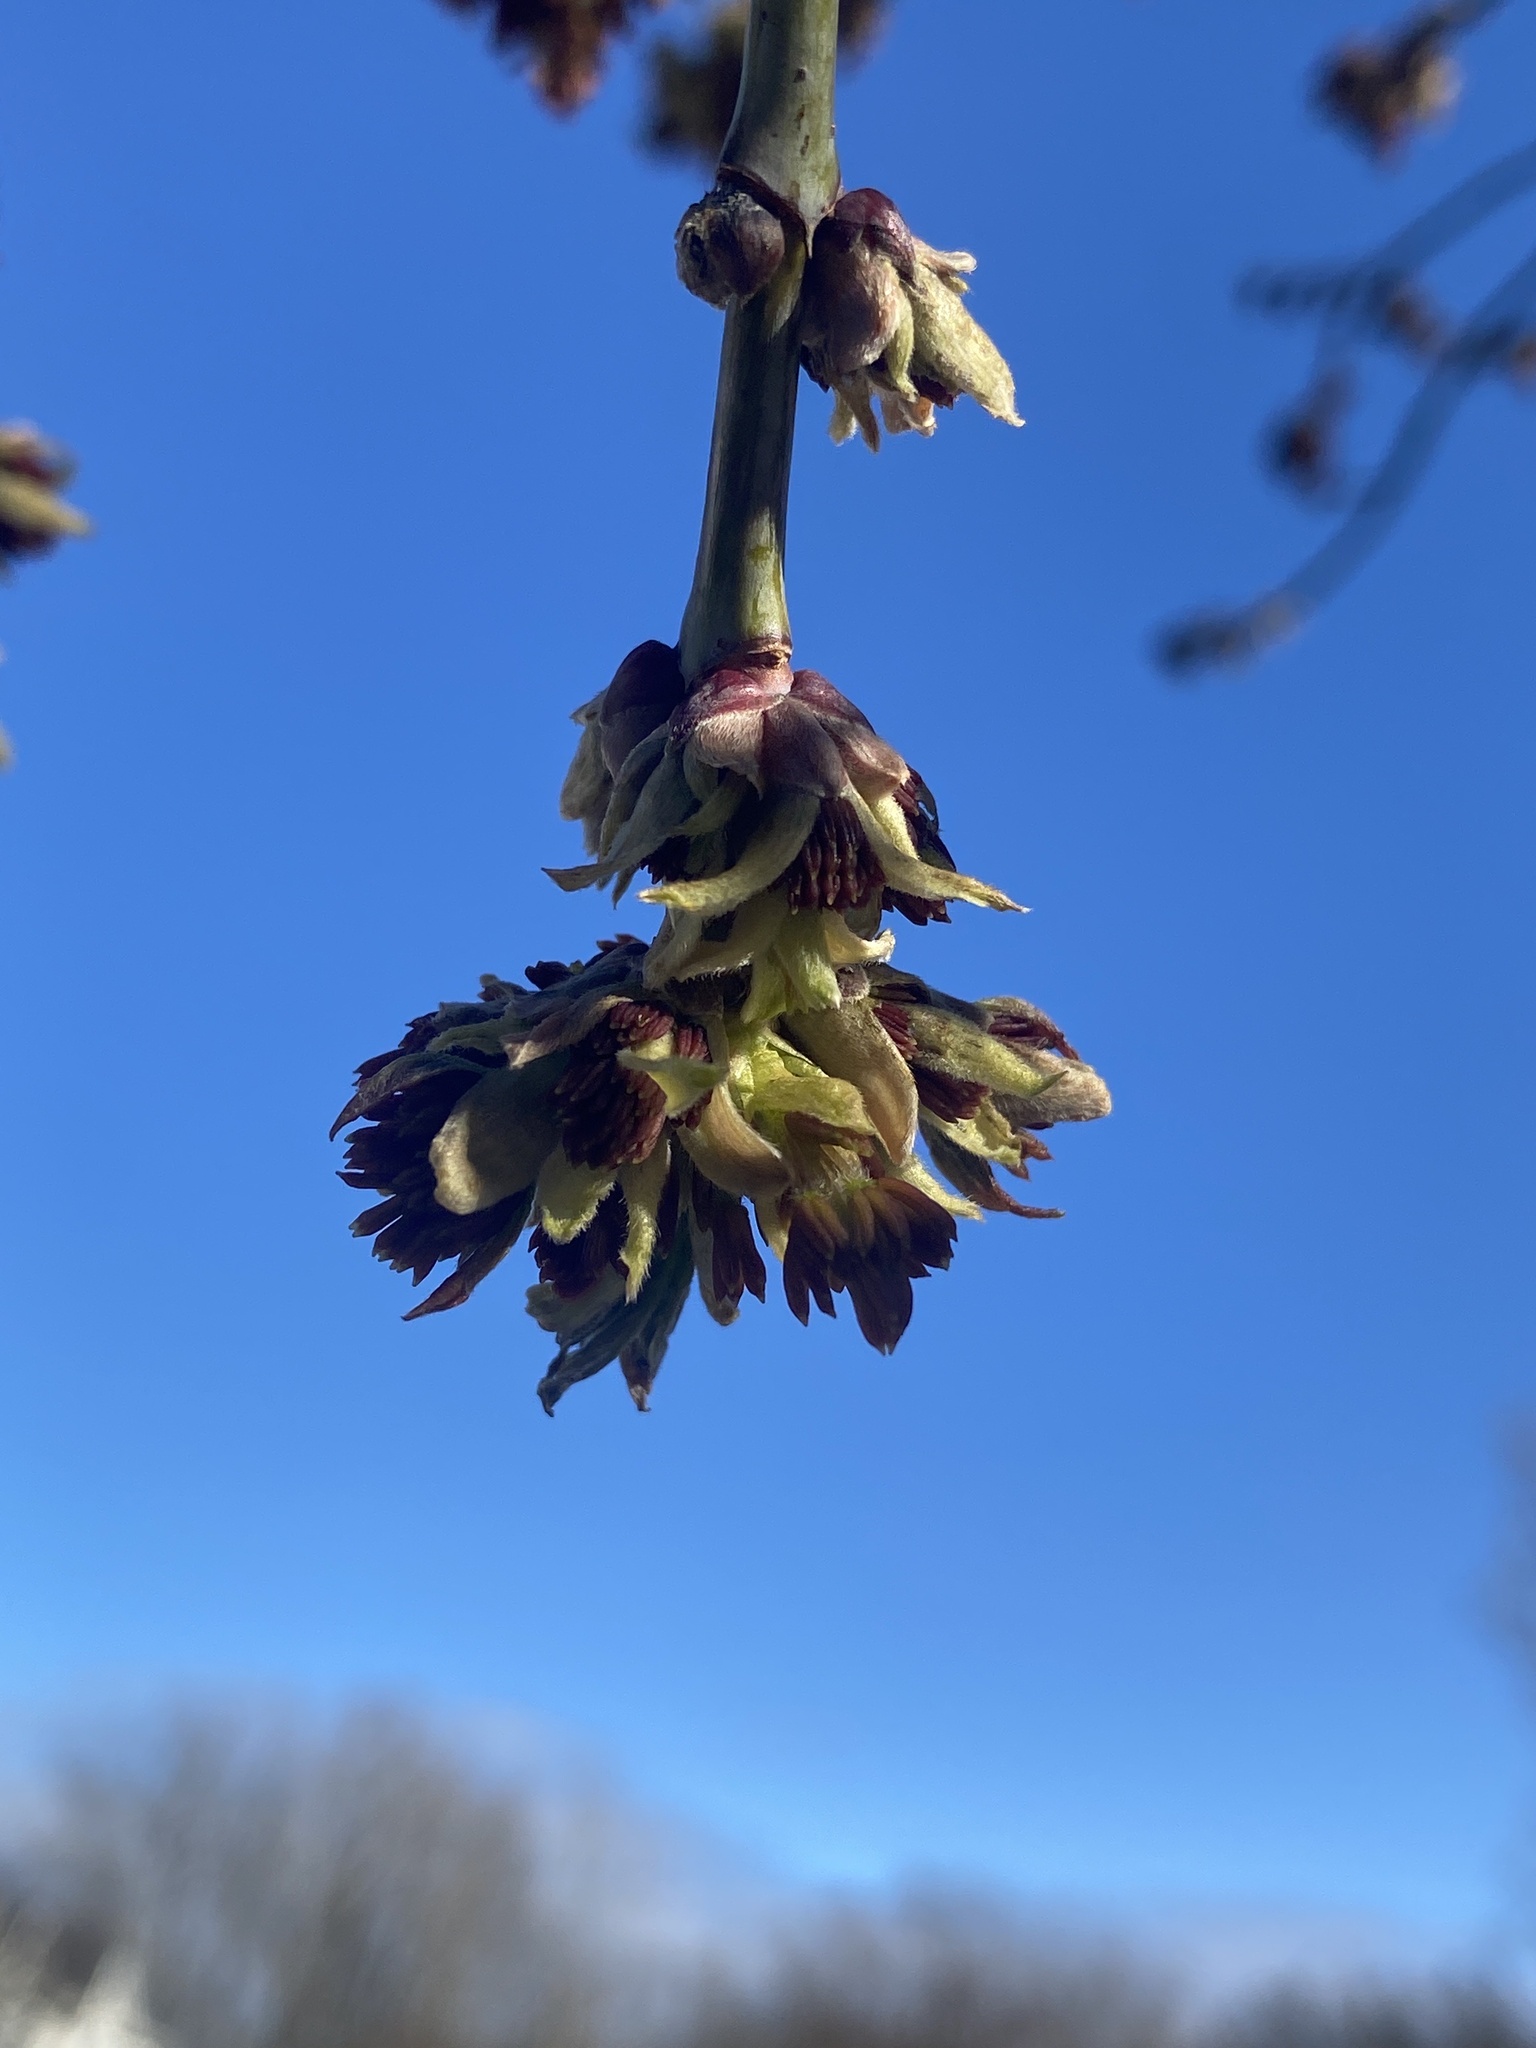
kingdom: Plantae
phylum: Tracheophyta
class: Magnoliopsida
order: Sapindales
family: Sapindaceae
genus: Acer
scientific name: Acer negundo
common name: Ashleaf maple
